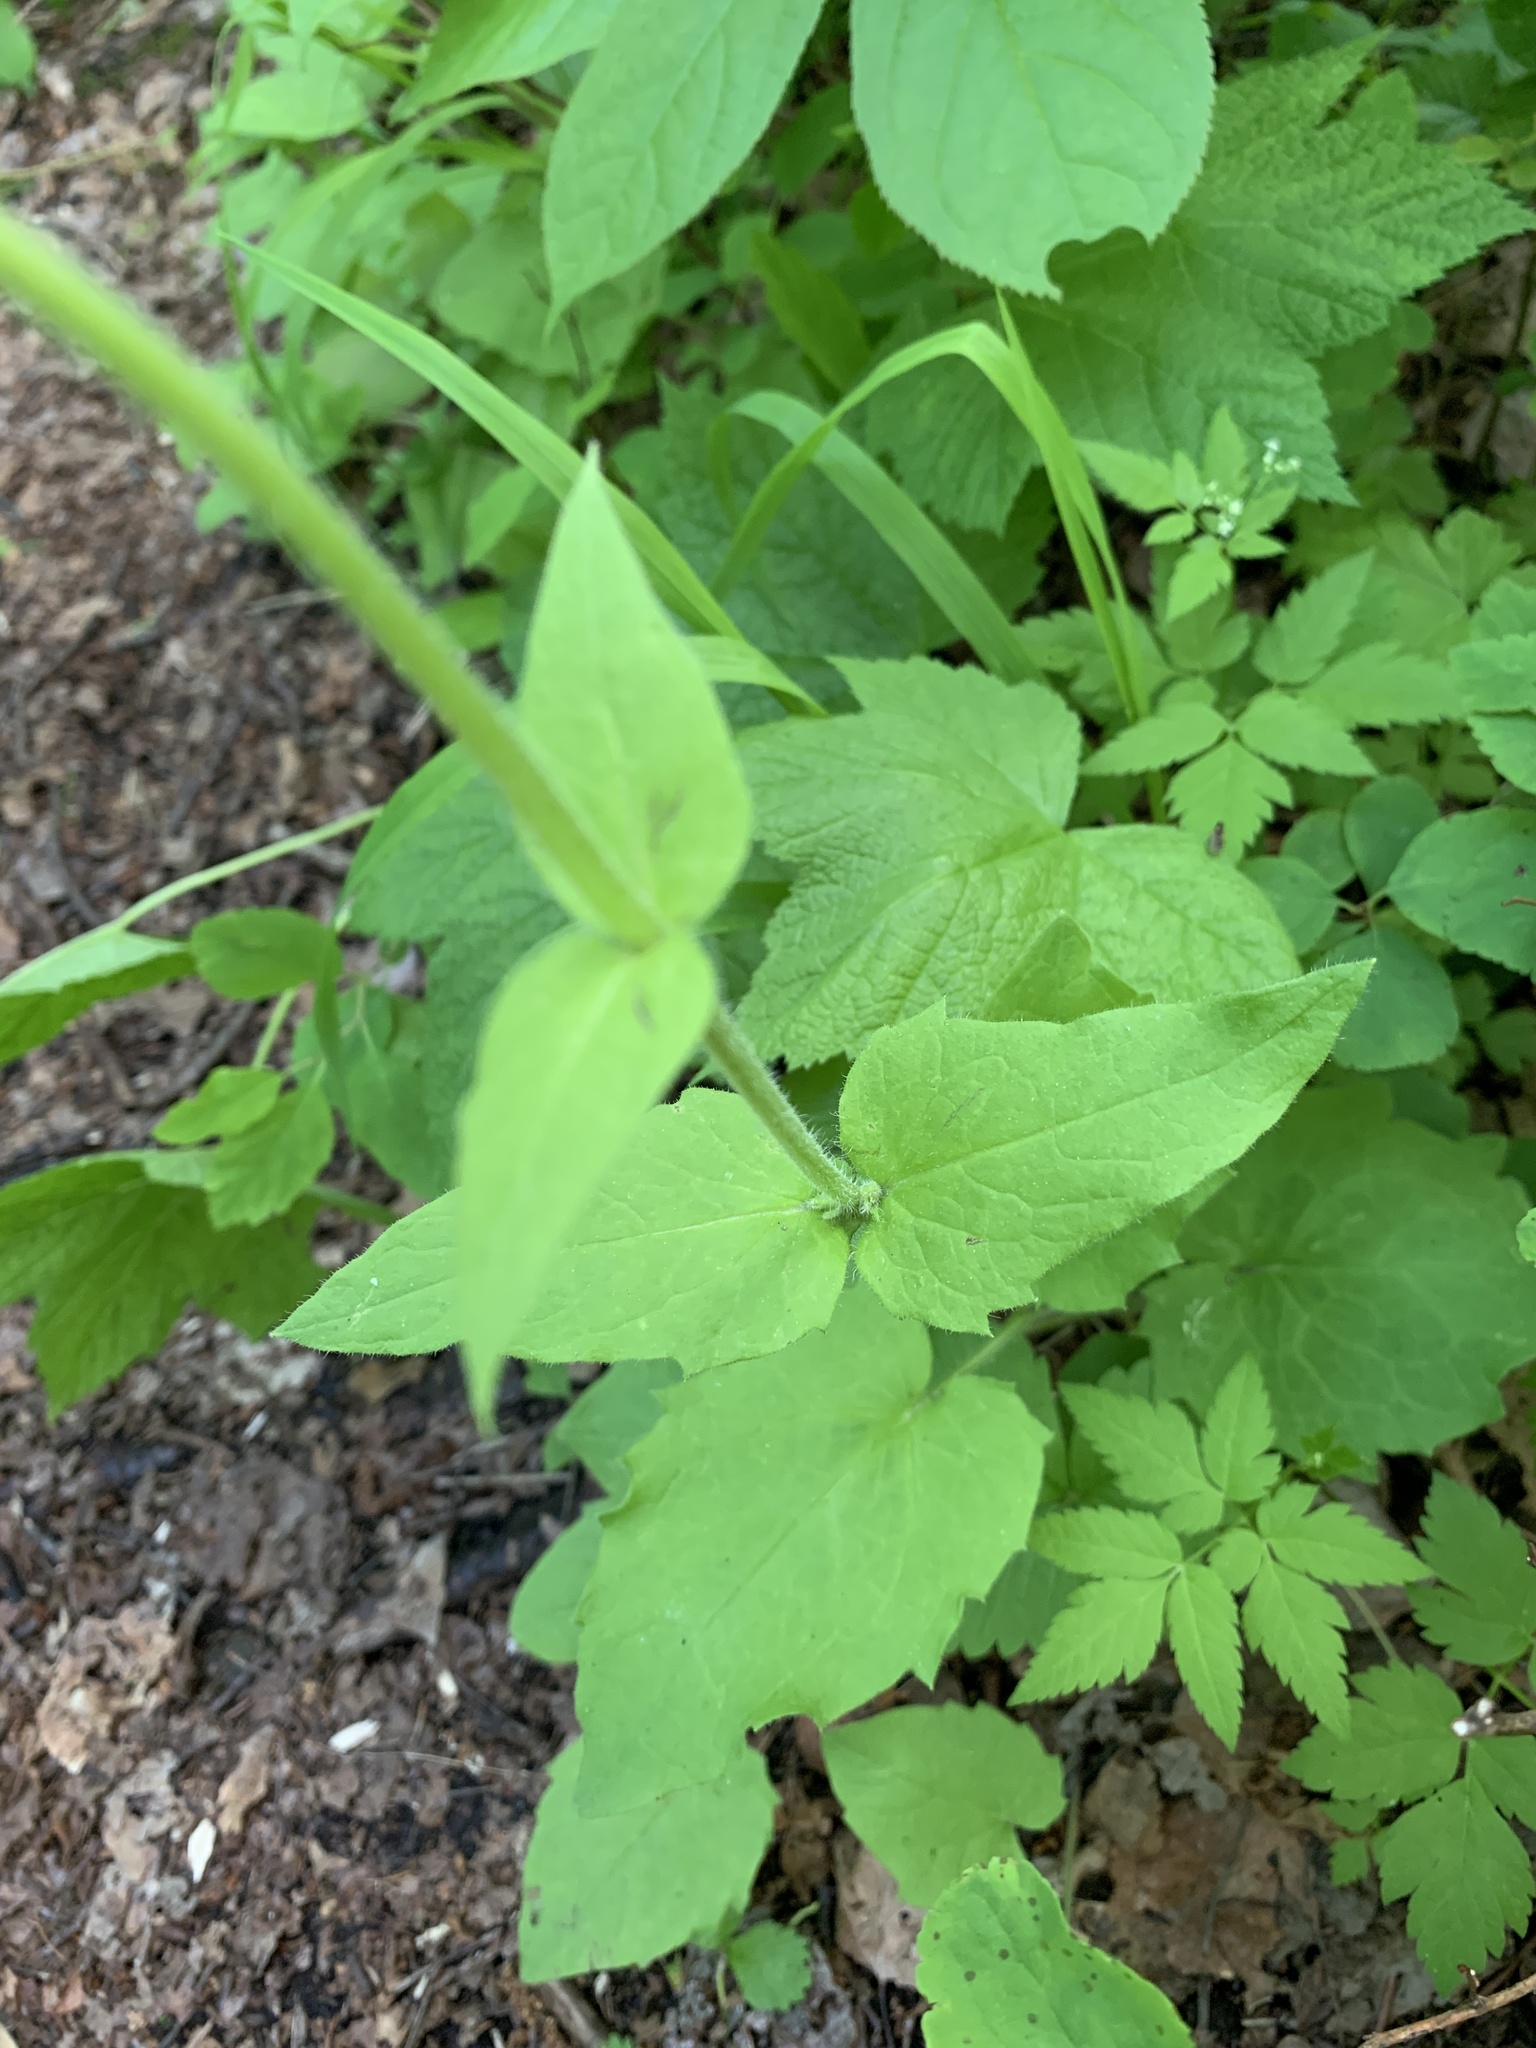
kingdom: Plantae
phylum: Tracheophyta
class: Magnoliopsida
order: Asterales
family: Asteraceae
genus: Arnica
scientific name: Arnica latifolia
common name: Arnica
